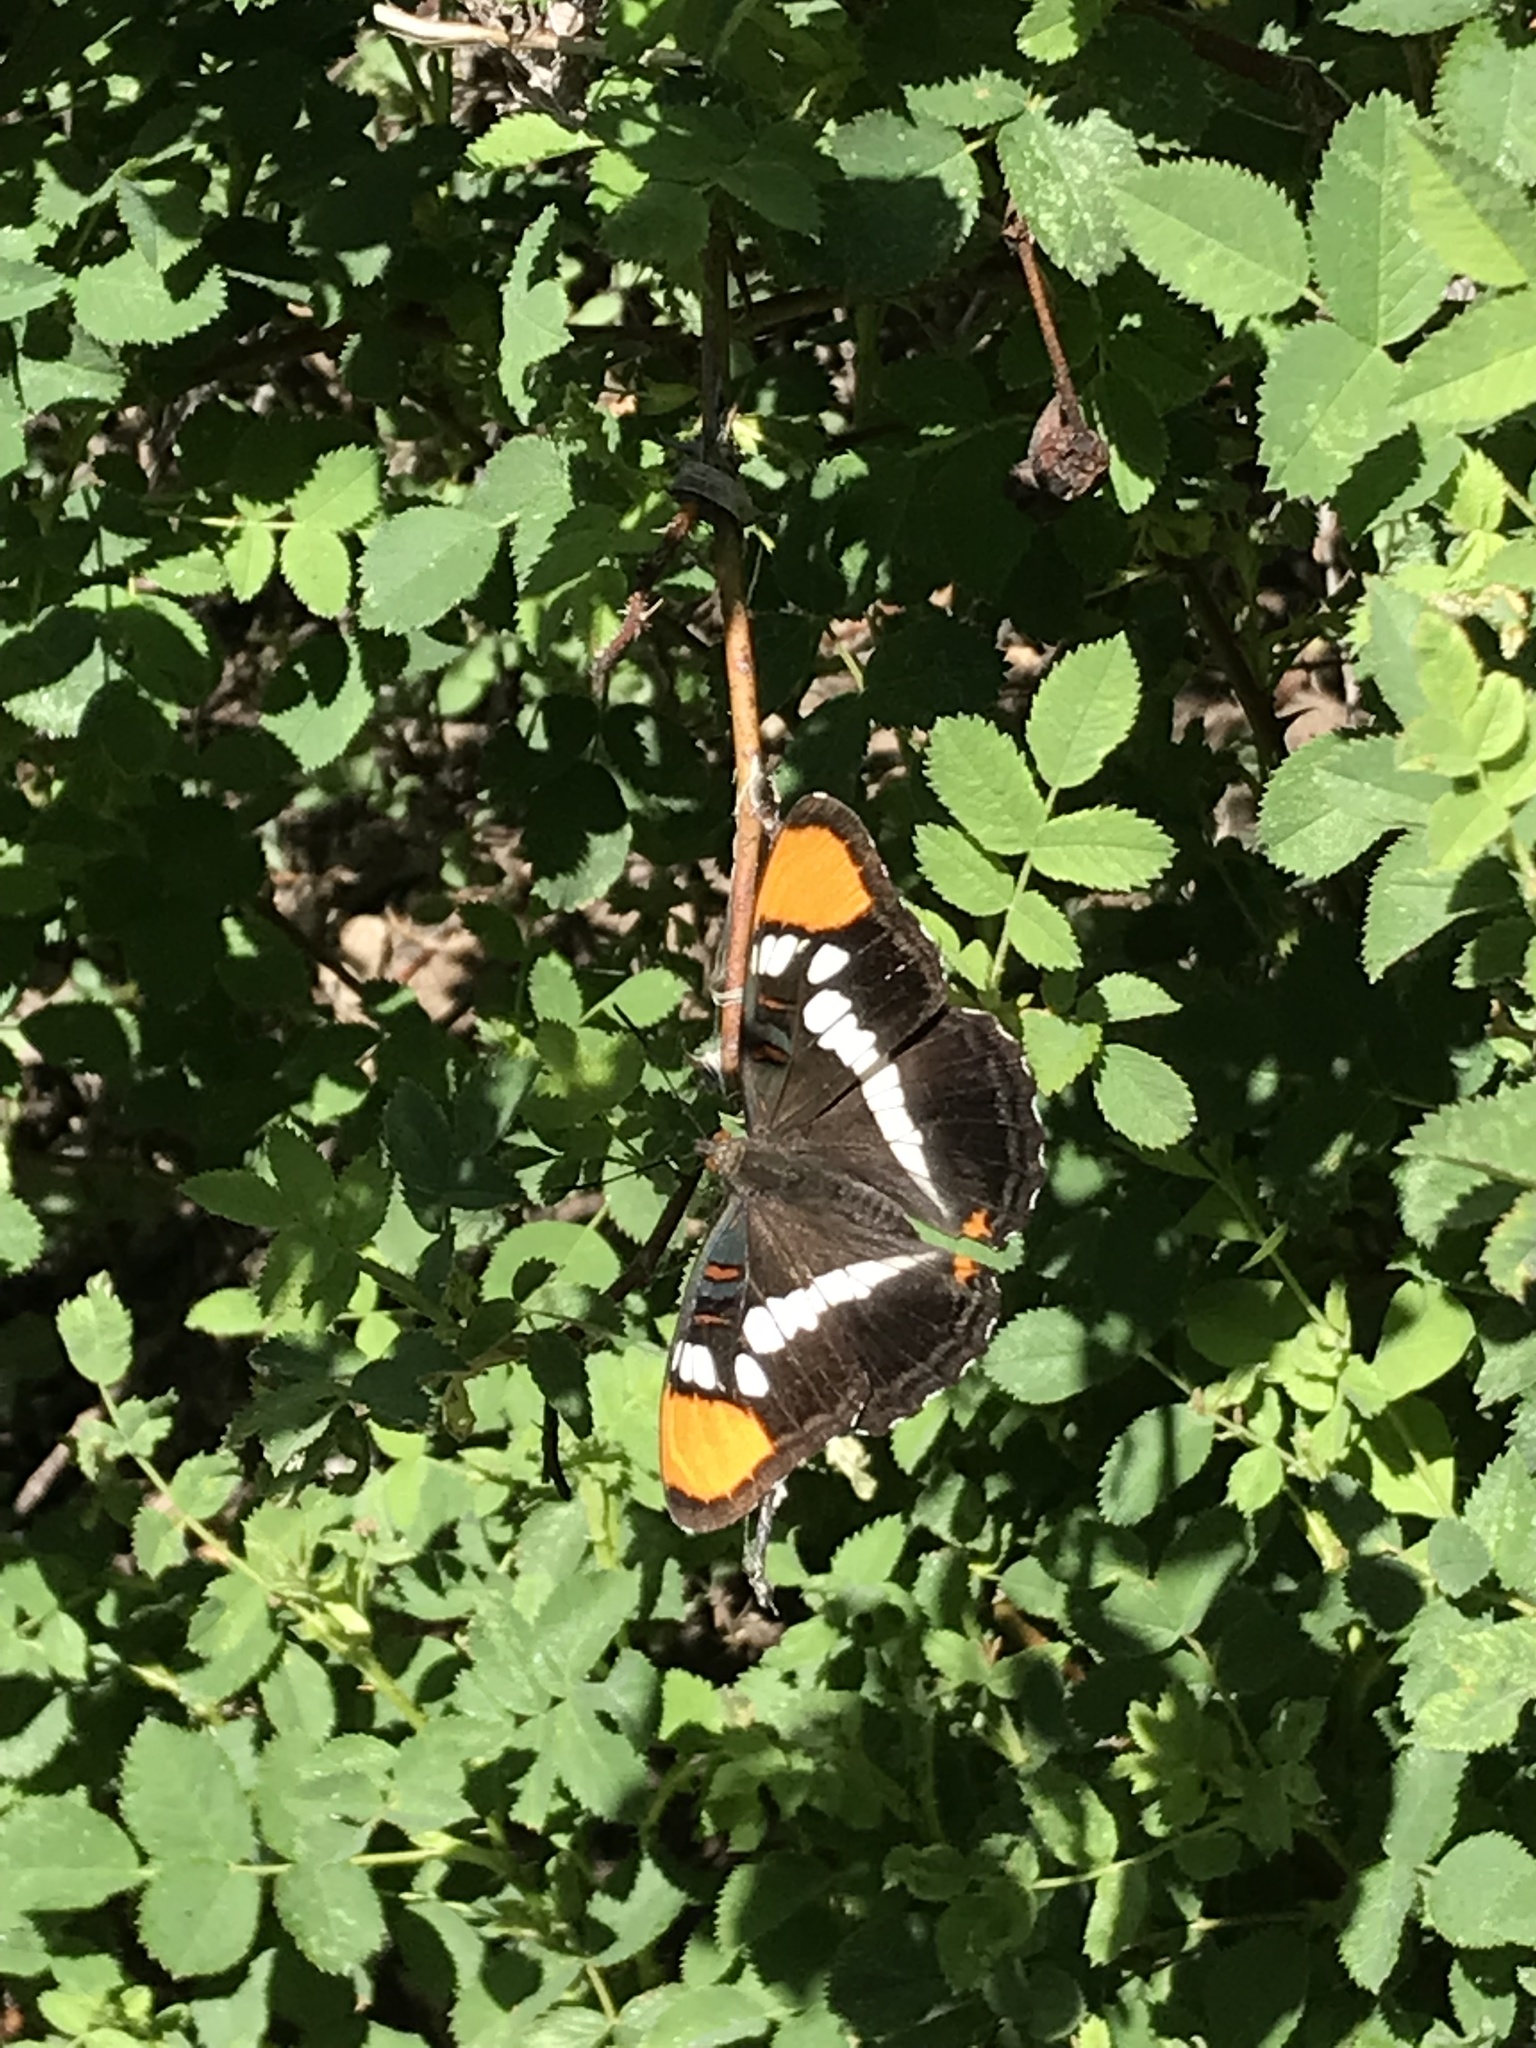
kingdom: Animalia
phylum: Arthropoda
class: Insecta
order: Lepidoptera
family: Nymphalidae
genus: Limenitis
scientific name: Limenitis bredowii
